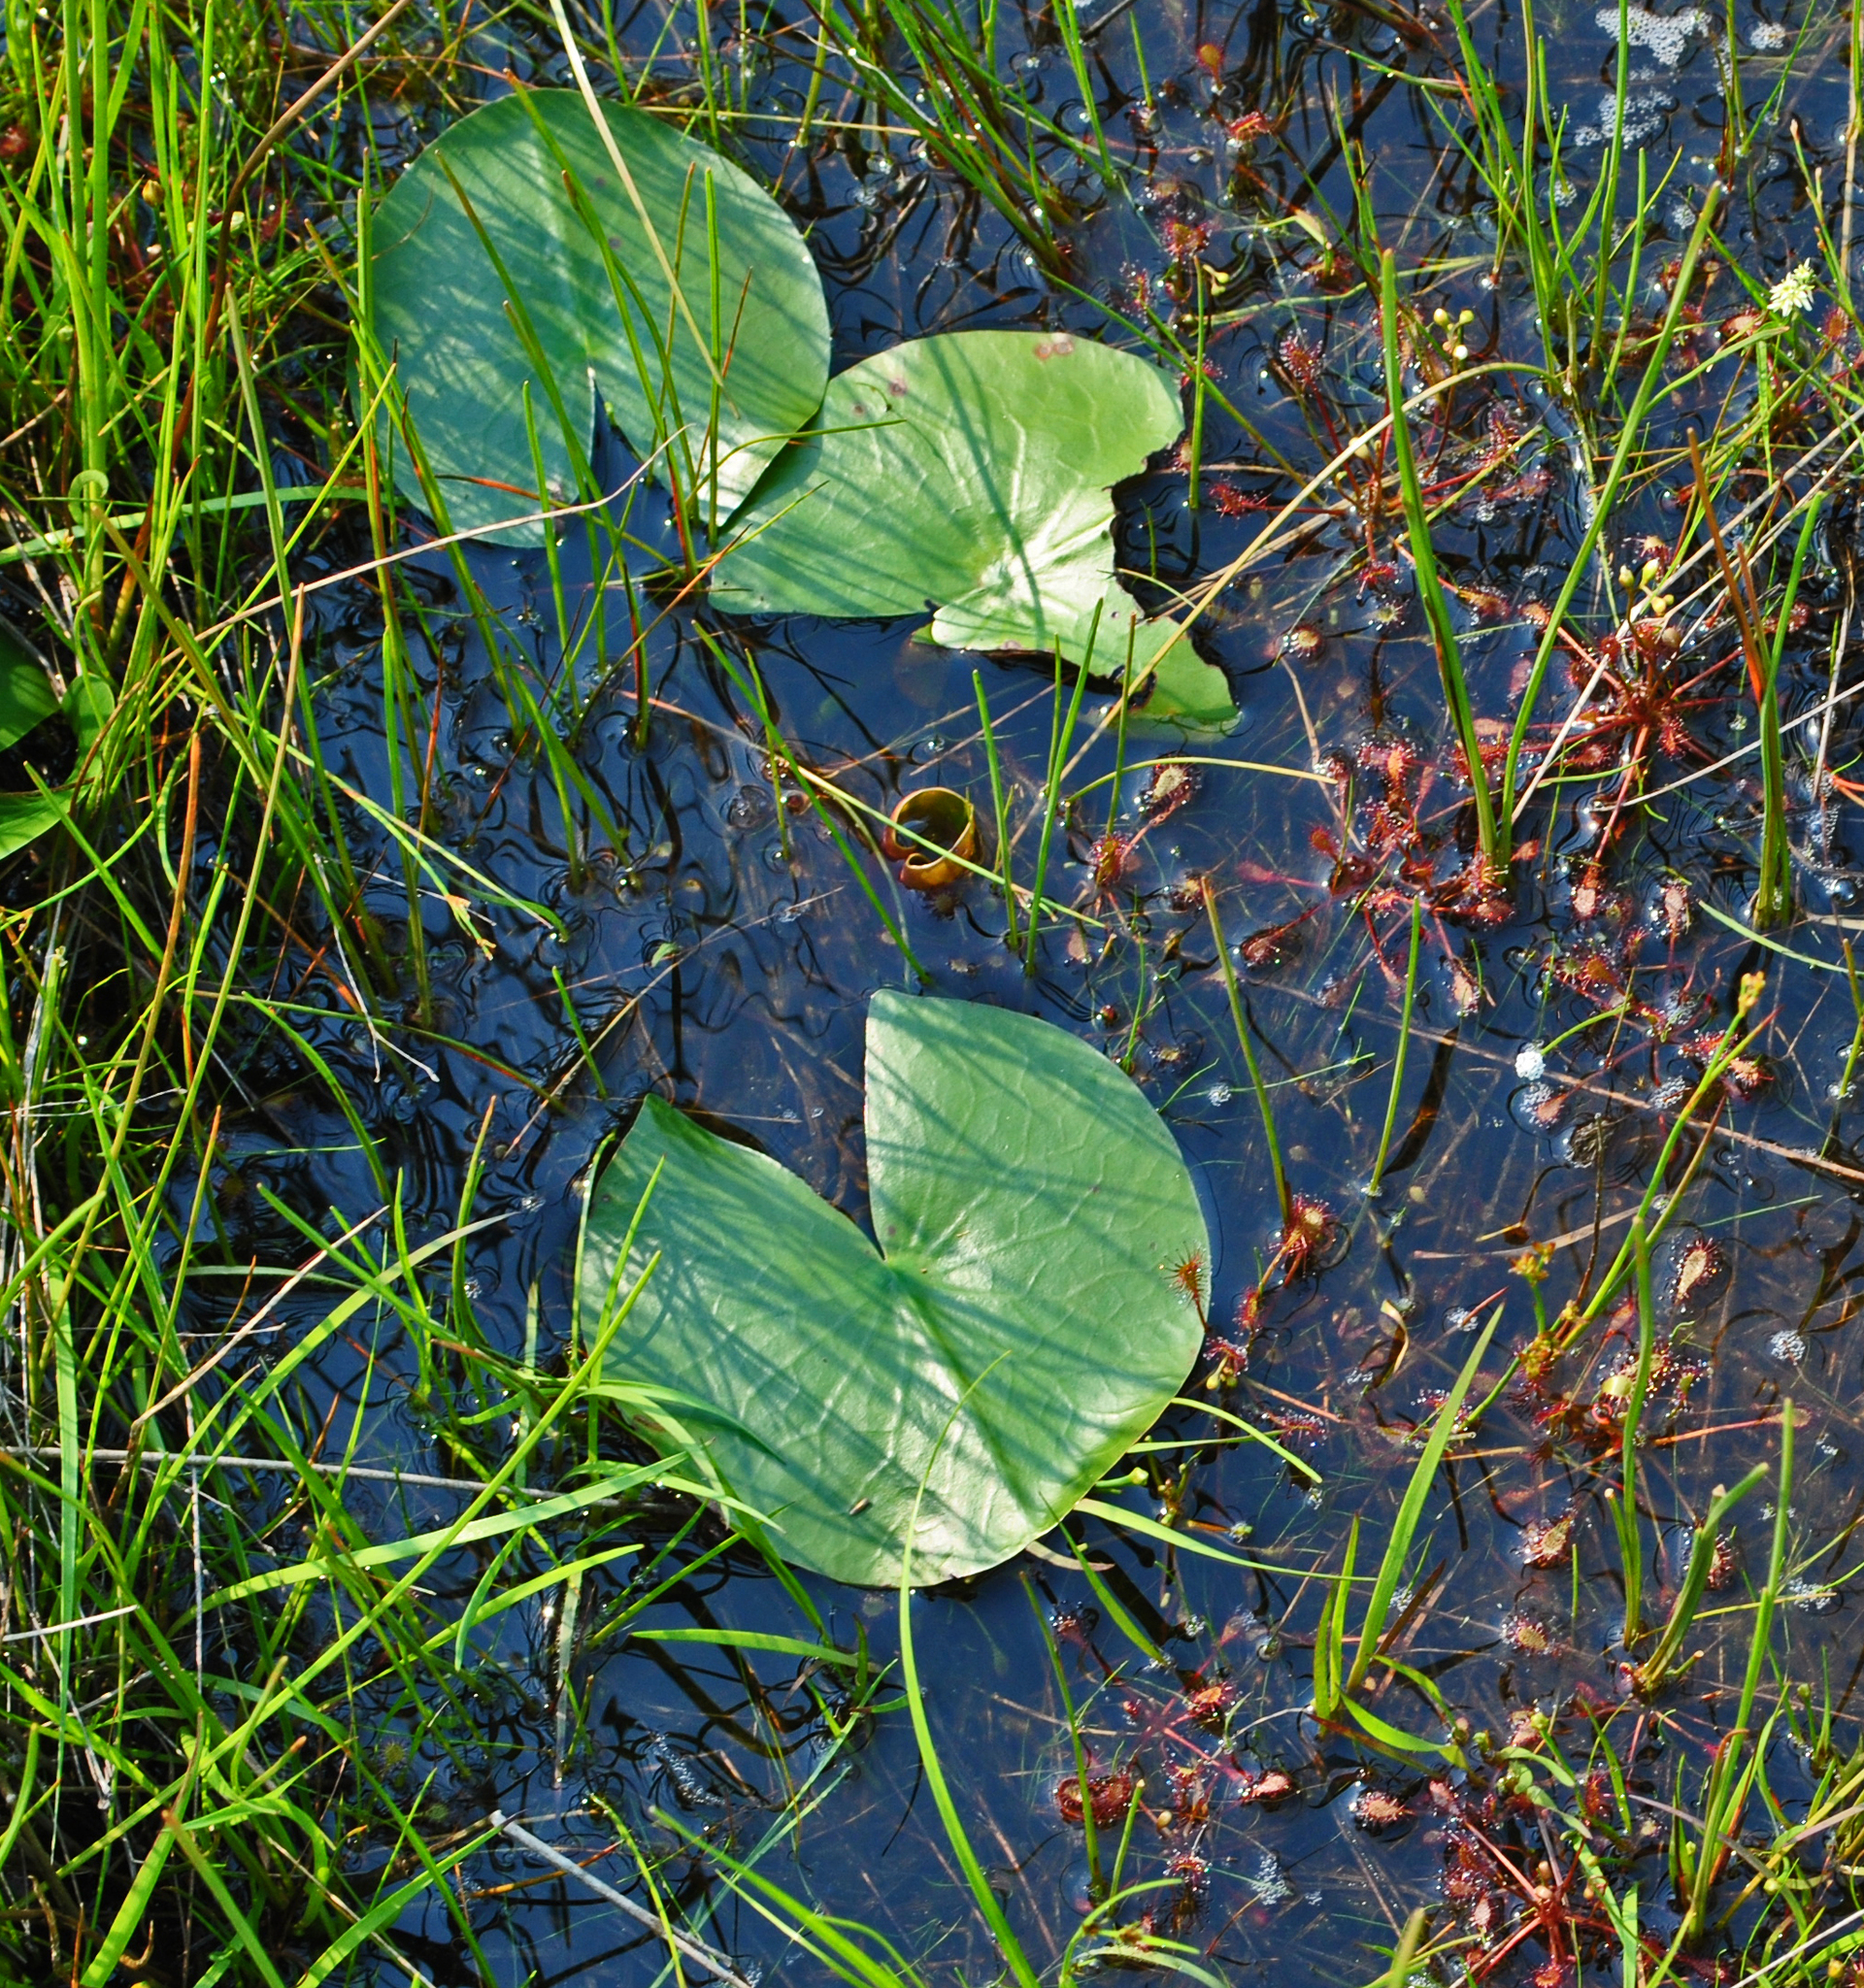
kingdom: Plantae
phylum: Tracheophyta
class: Magnoliopsida
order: Caryophyllales
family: Droseraceae
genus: Drosera
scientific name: Drosera intermedia
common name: Oblong-leaved sundew
